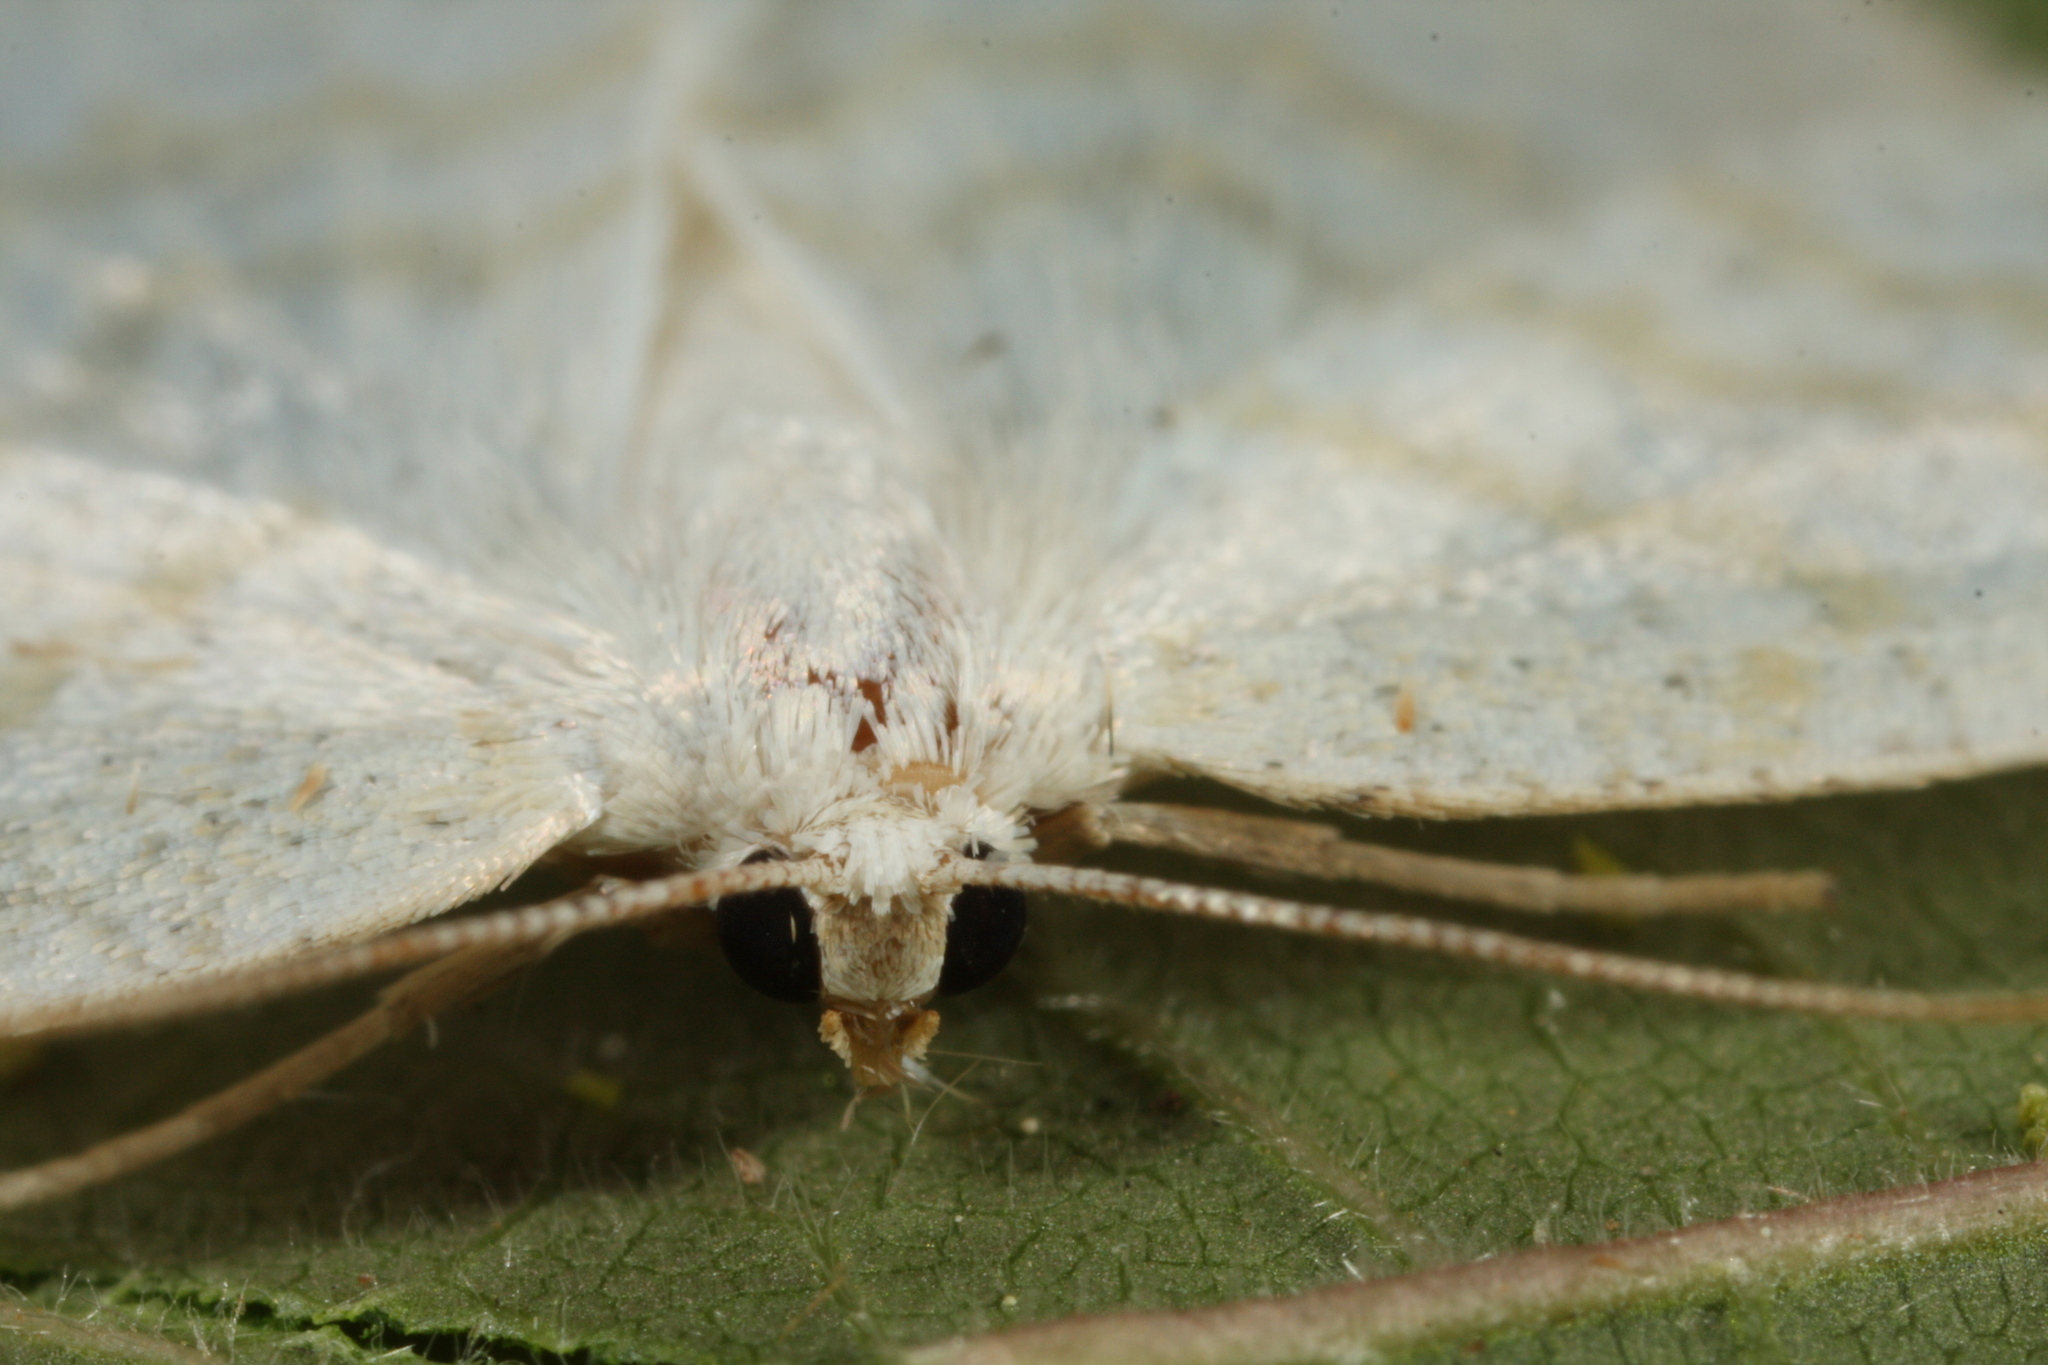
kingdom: Animalia
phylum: Arthropoda
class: Insecta
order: Lepidoptera
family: Geometridae
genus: Cabera
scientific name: Cabera exanthemata
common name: Common wave
